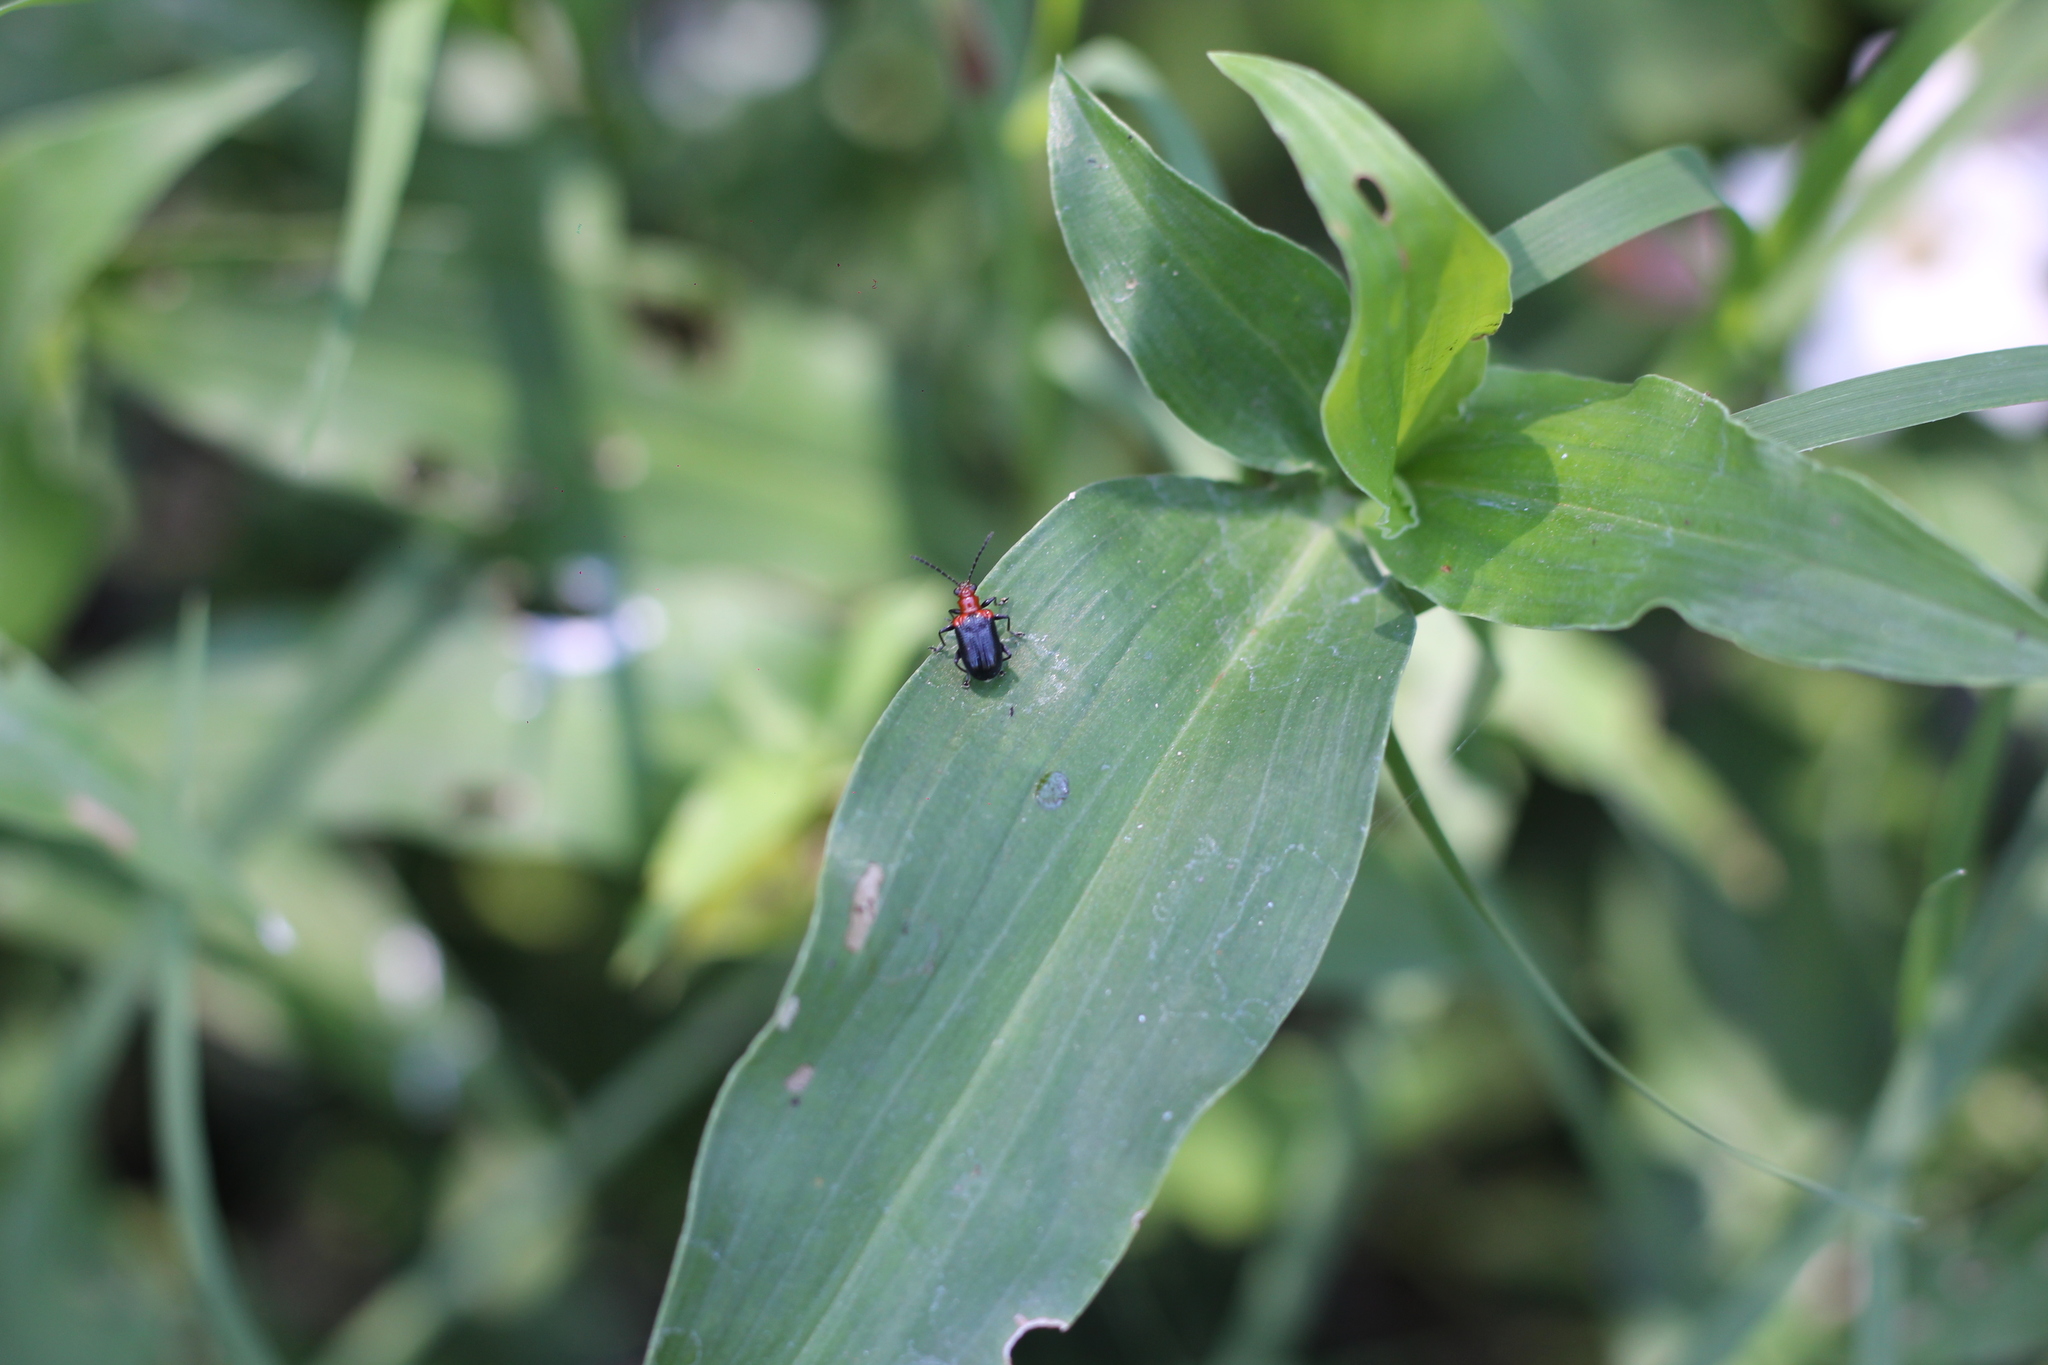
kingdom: Animalia
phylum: Arthropoda
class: Insecta
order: Coleoptera
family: Chrysomelidae
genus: Neolema
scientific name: Neolema
